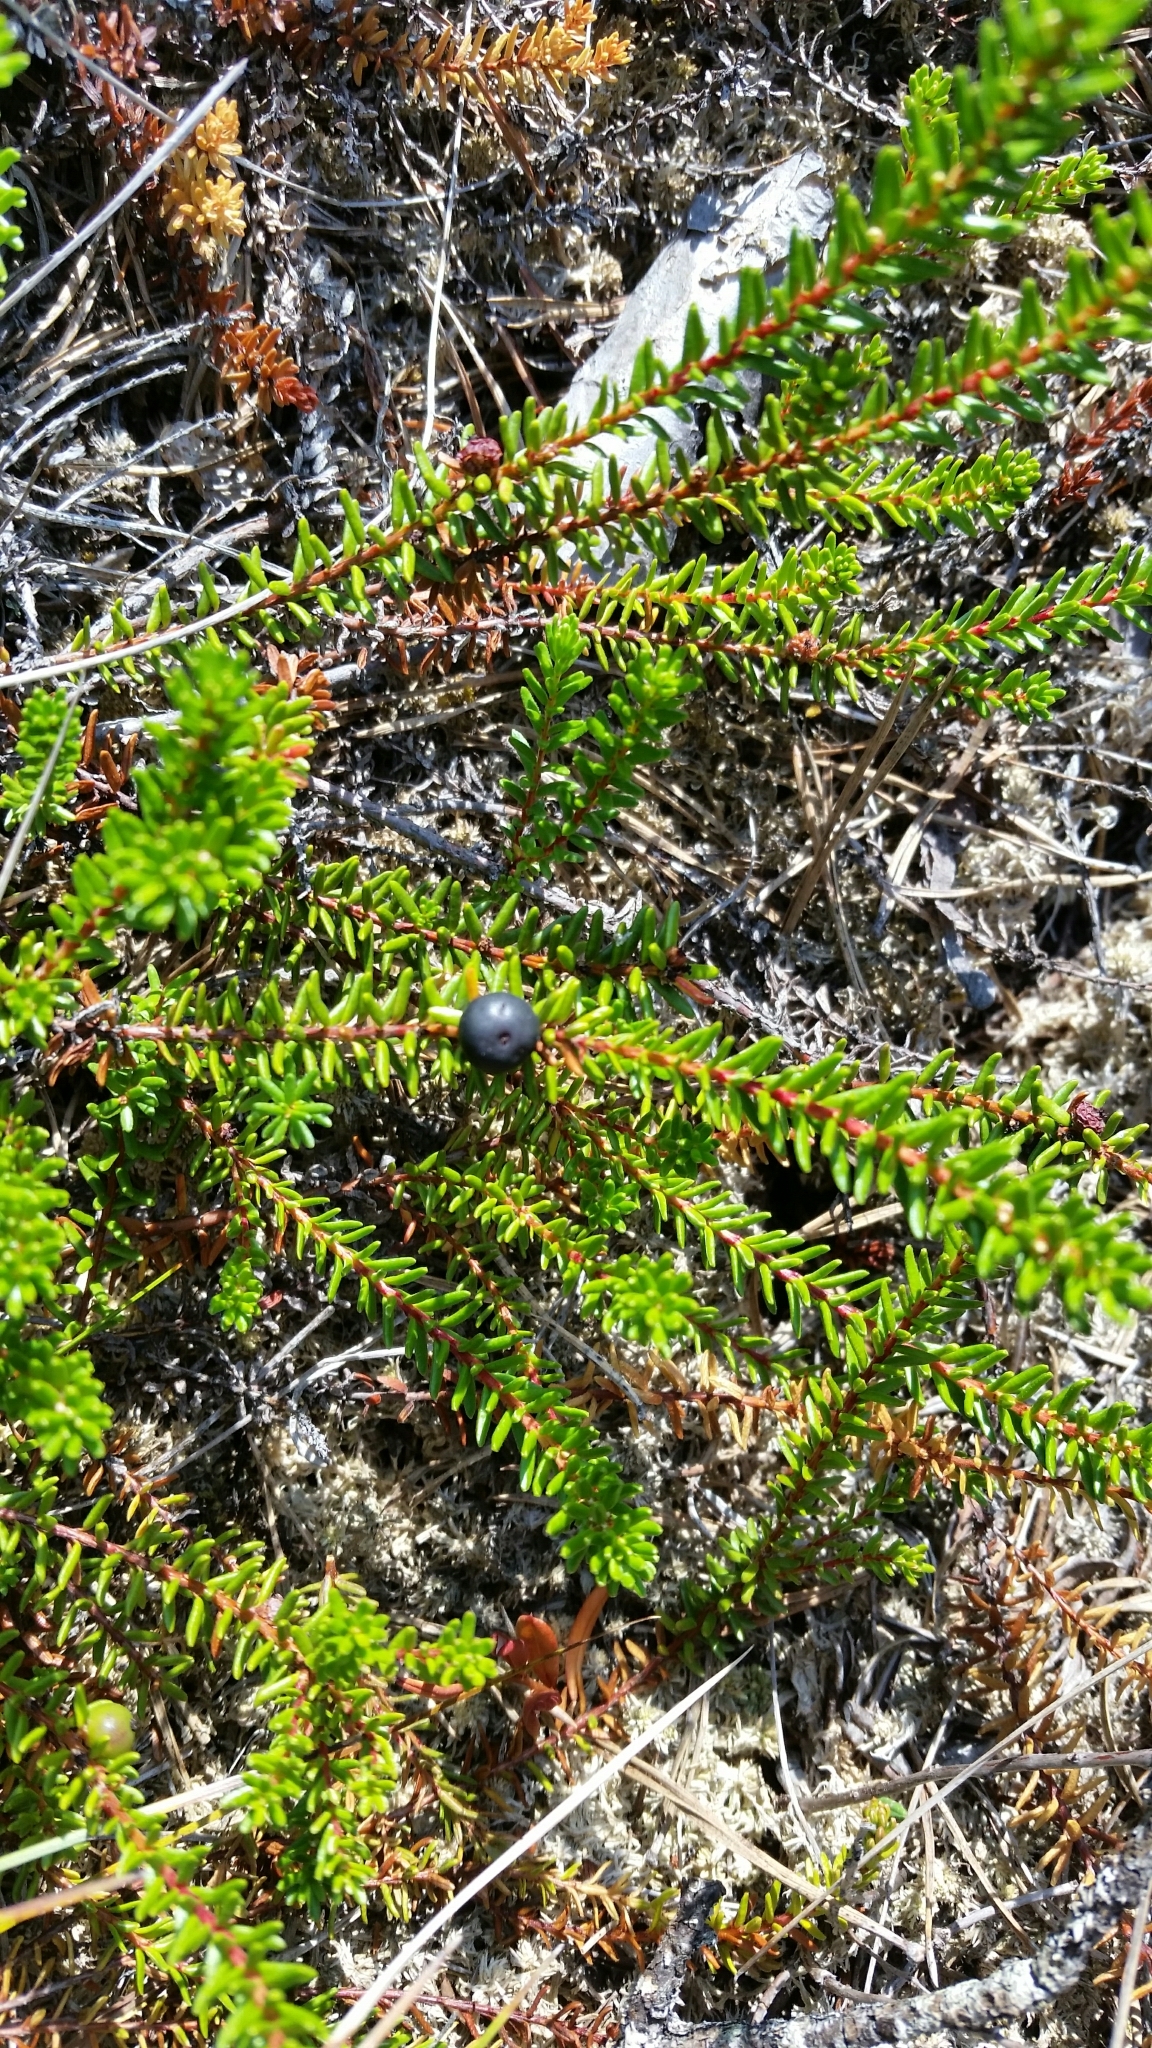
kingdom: Plantae
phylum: Tracheophyta
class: Magnoliopsida
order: Ericales
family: Ericaceae
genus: Empetrum
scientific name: Empetrum nigrum
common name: Black crowberry
